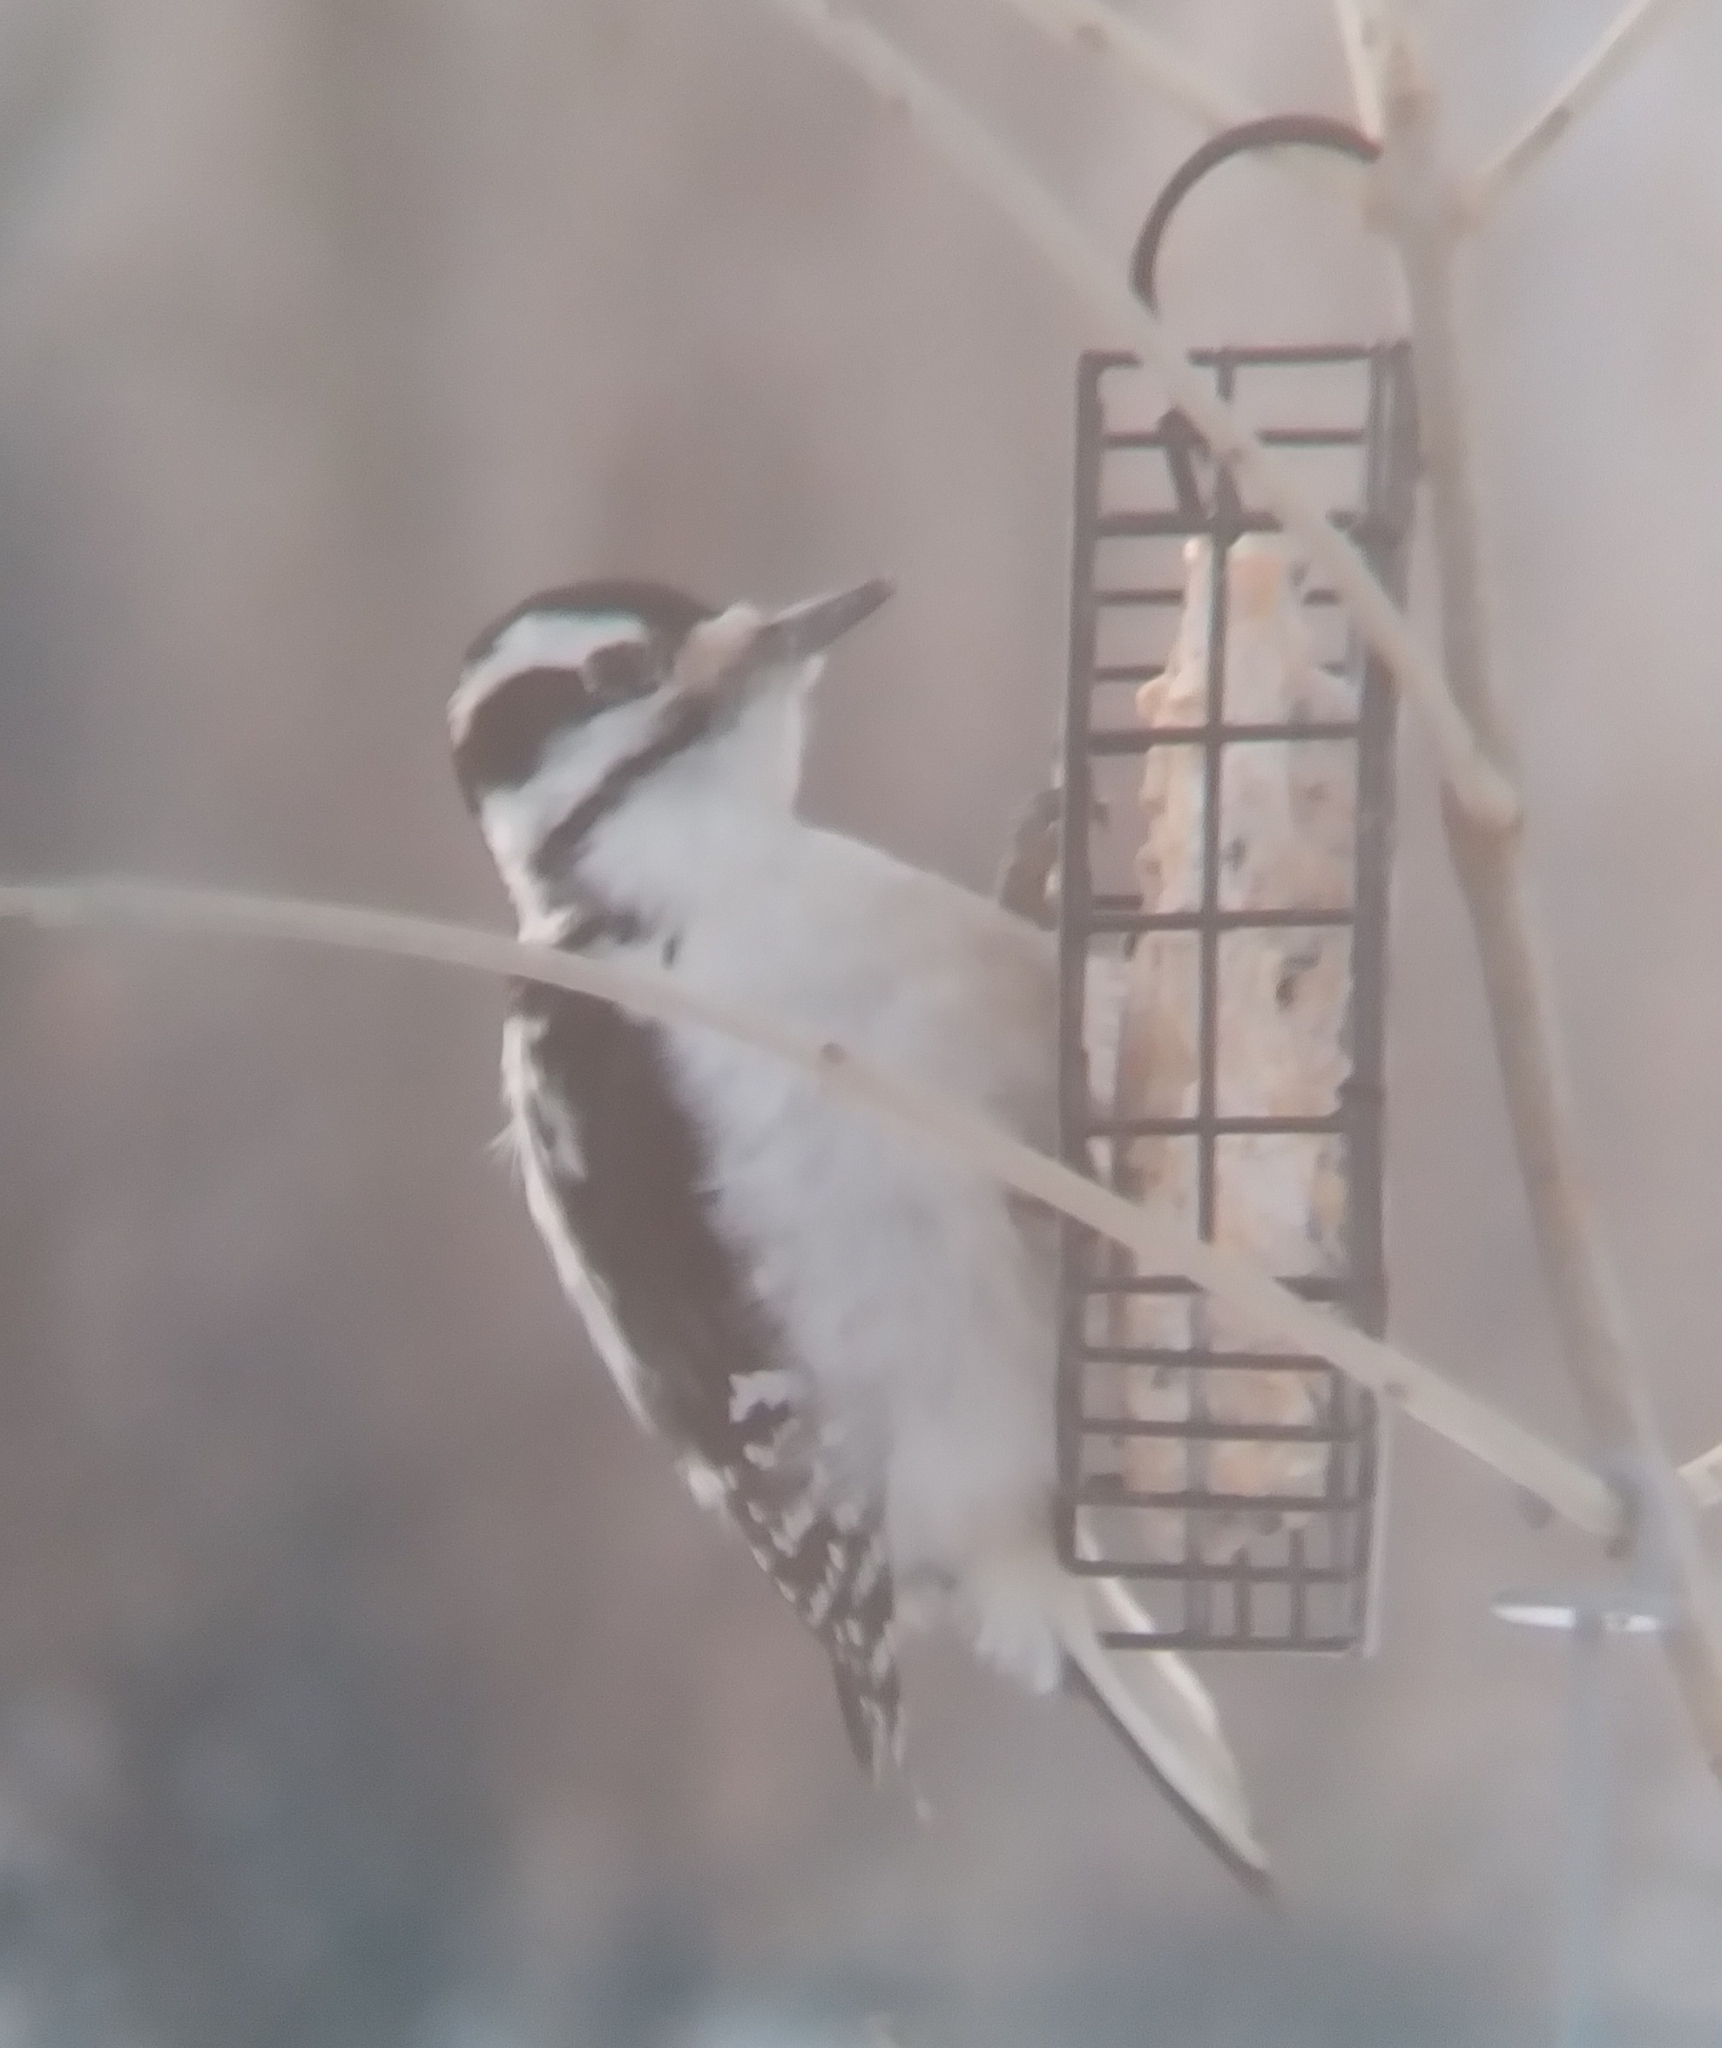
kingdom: Animalia
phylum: Chordata
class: Aves
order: Piciformes
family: Picidae
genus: Leuconotopicus
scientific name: Leuconotopicus villosus
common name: Hairy woodpecker
